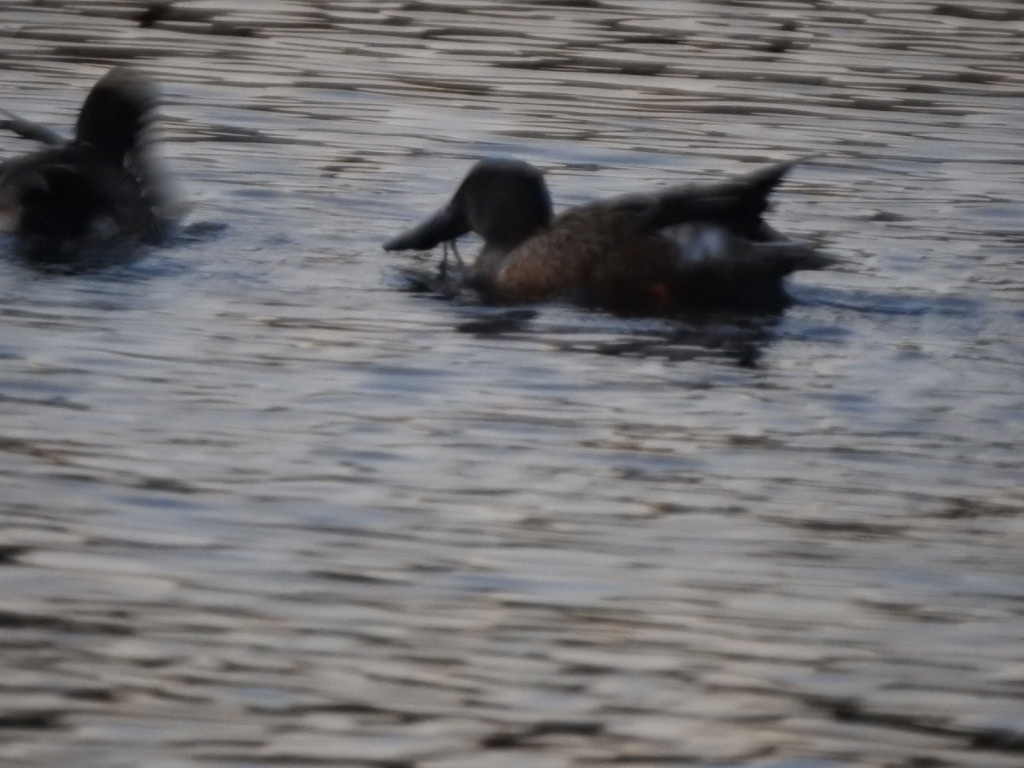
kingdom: Animalia
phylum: Chordata
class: Aves
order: Anseriformes
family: Anatidae
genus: Spatula
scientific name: Spatula clypeata
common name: Northern shoveler
